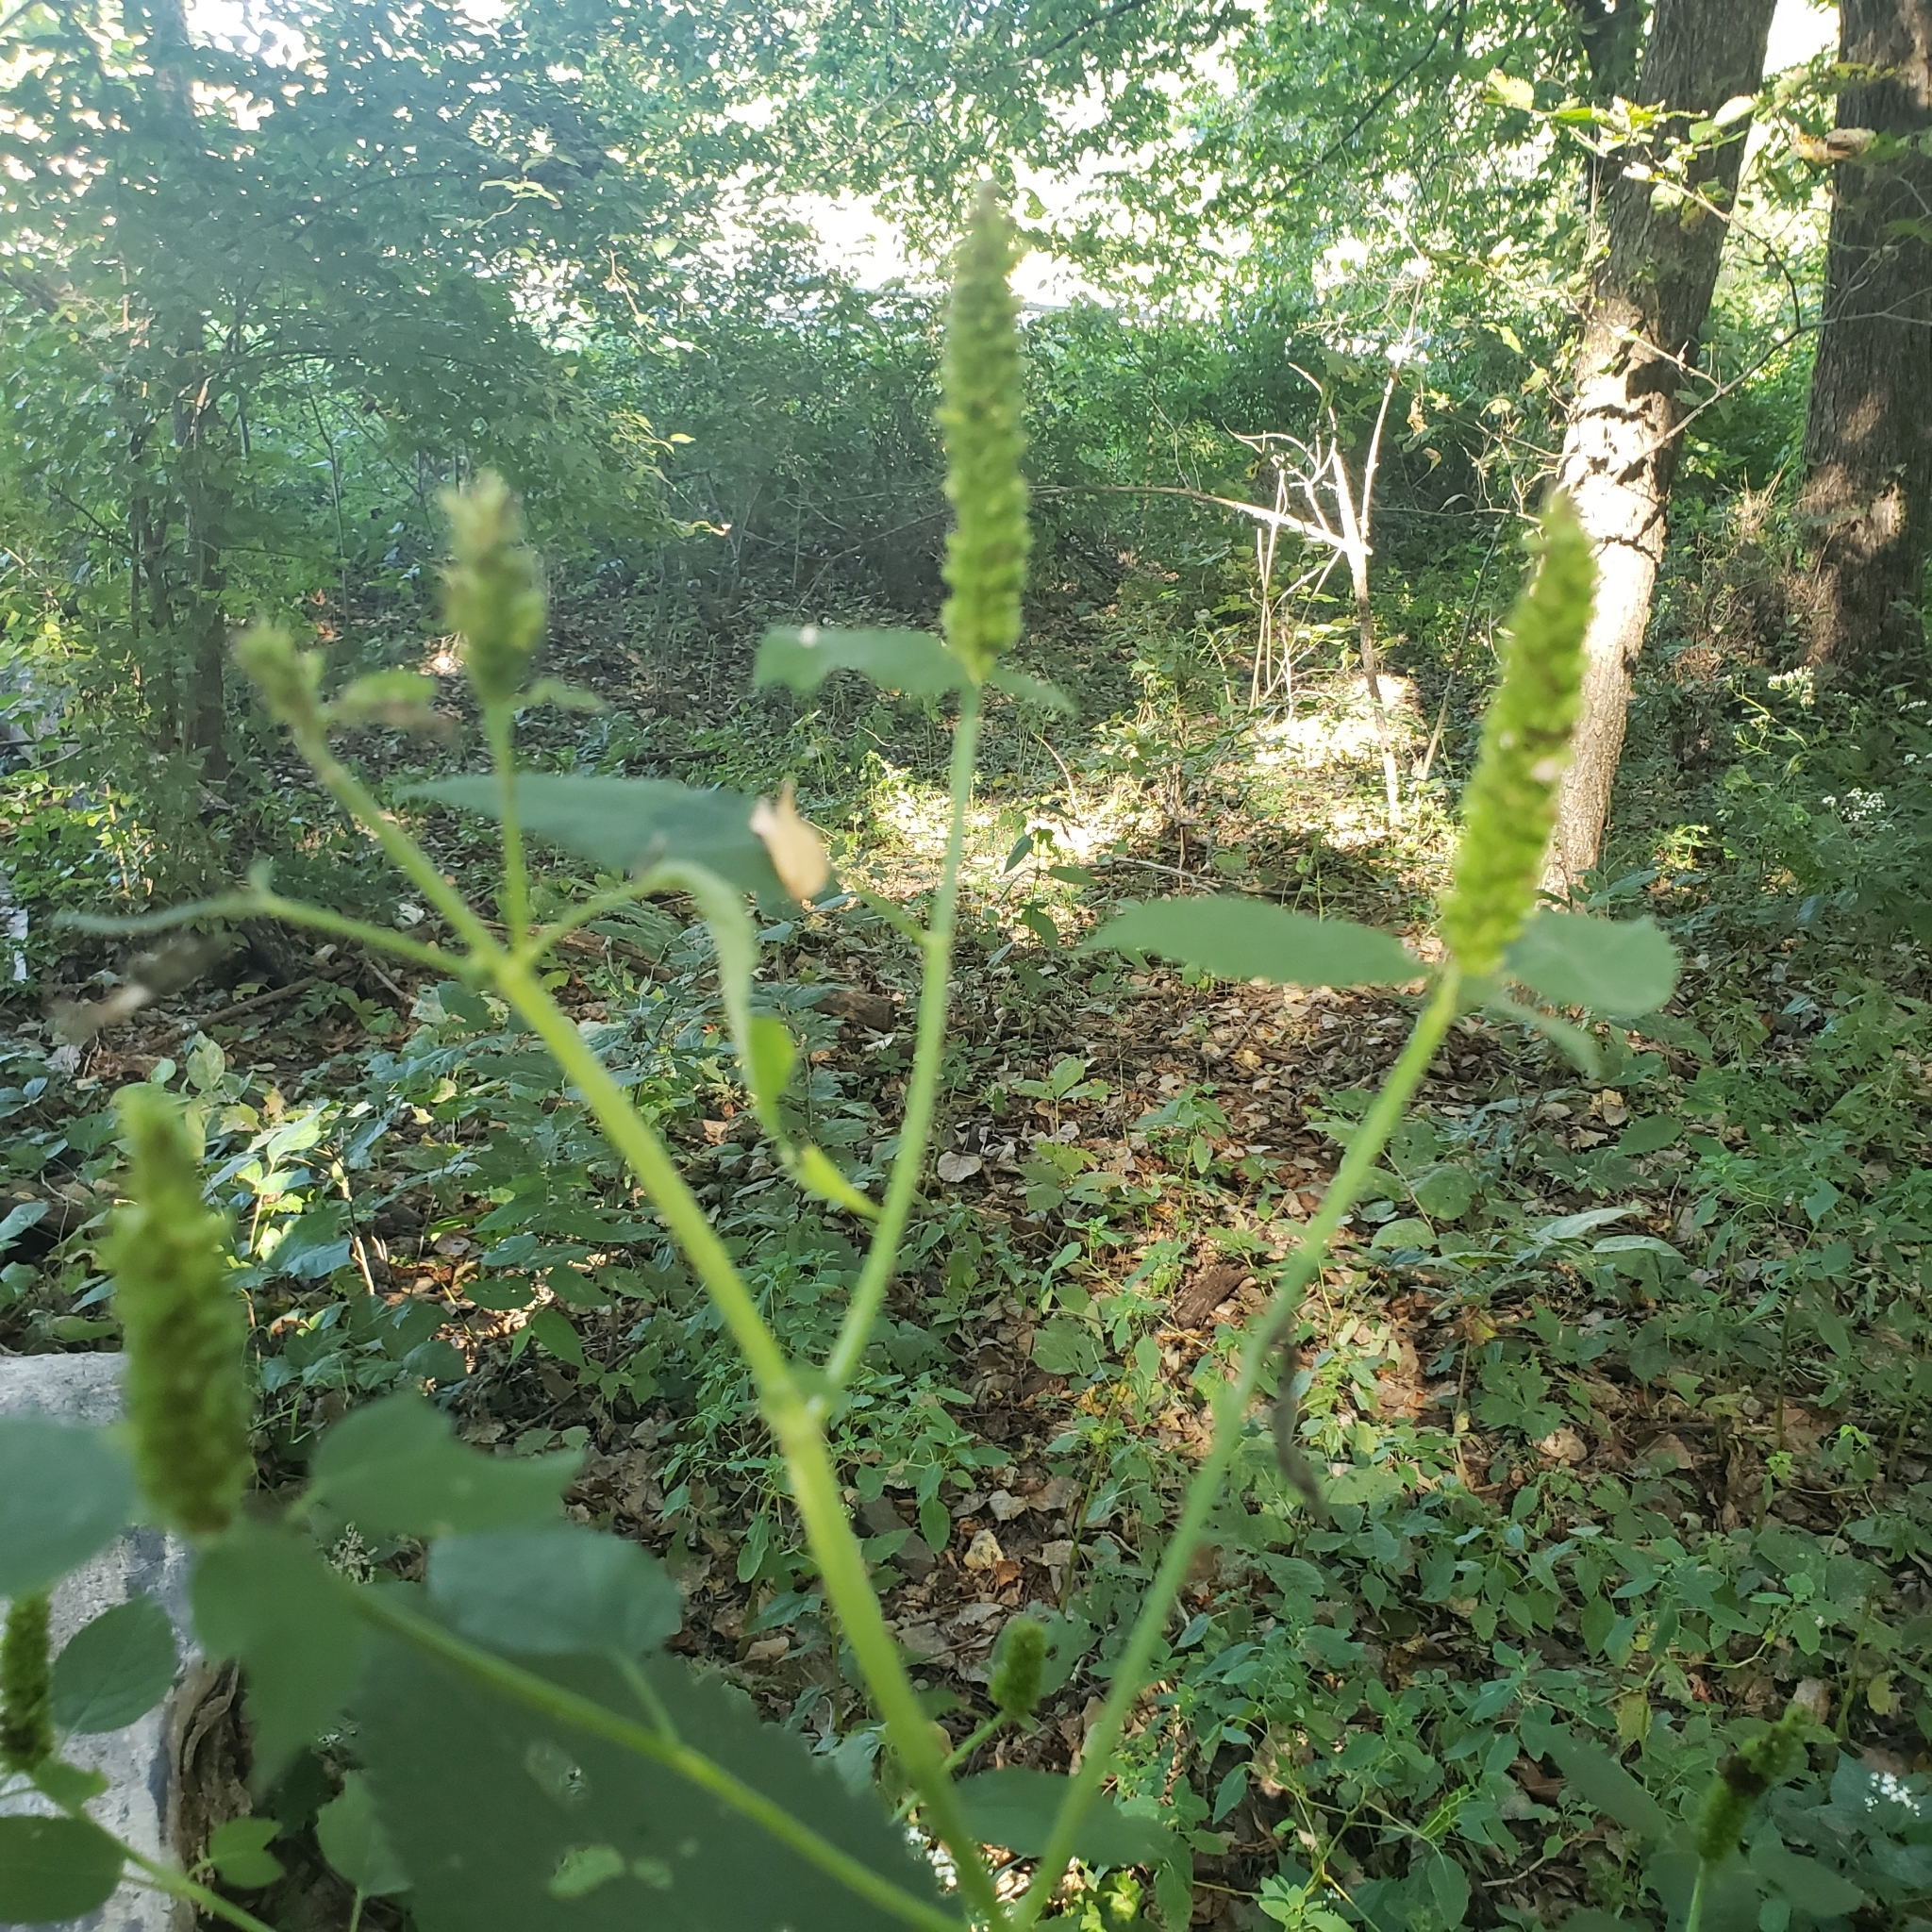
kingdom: Plantae
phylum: Tracheophyta
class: Magnoliopsida
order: Lamiales
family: Lamiaceae
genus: Agastache
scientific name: Agastache nepetoides
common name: Catnip giant hyssop
